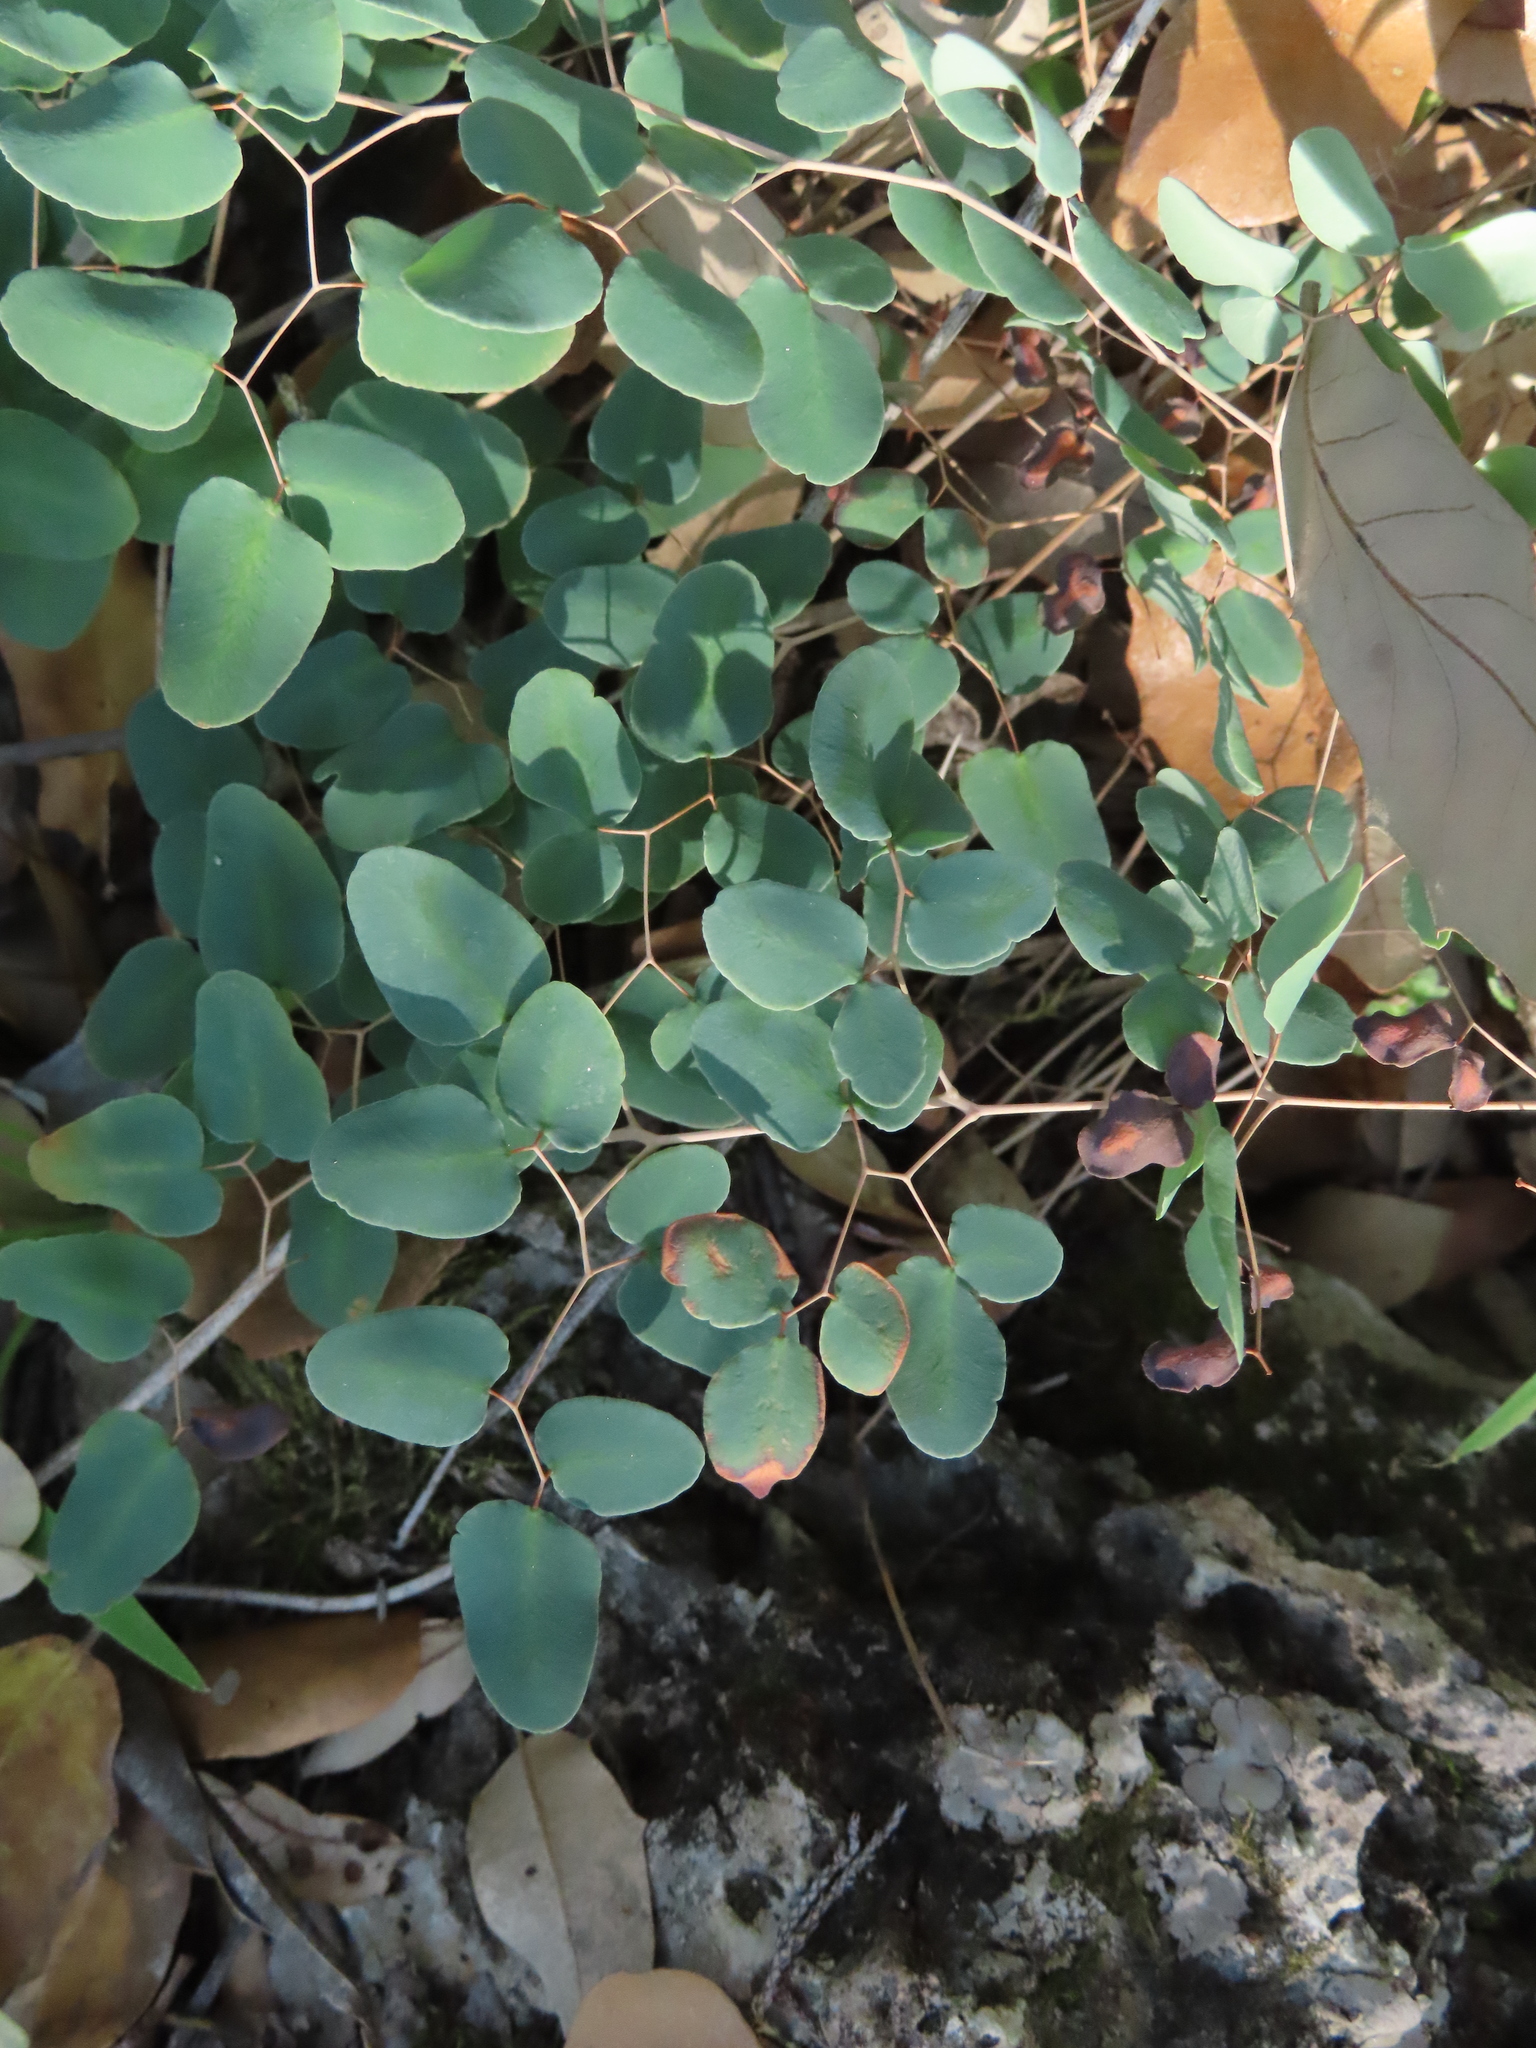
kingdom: Plantae
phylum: Tracheophyta
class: Polypodiopsida
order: Polypodiales
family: Pteridaceae
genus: Pellaea
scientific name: Pellaea ovata
